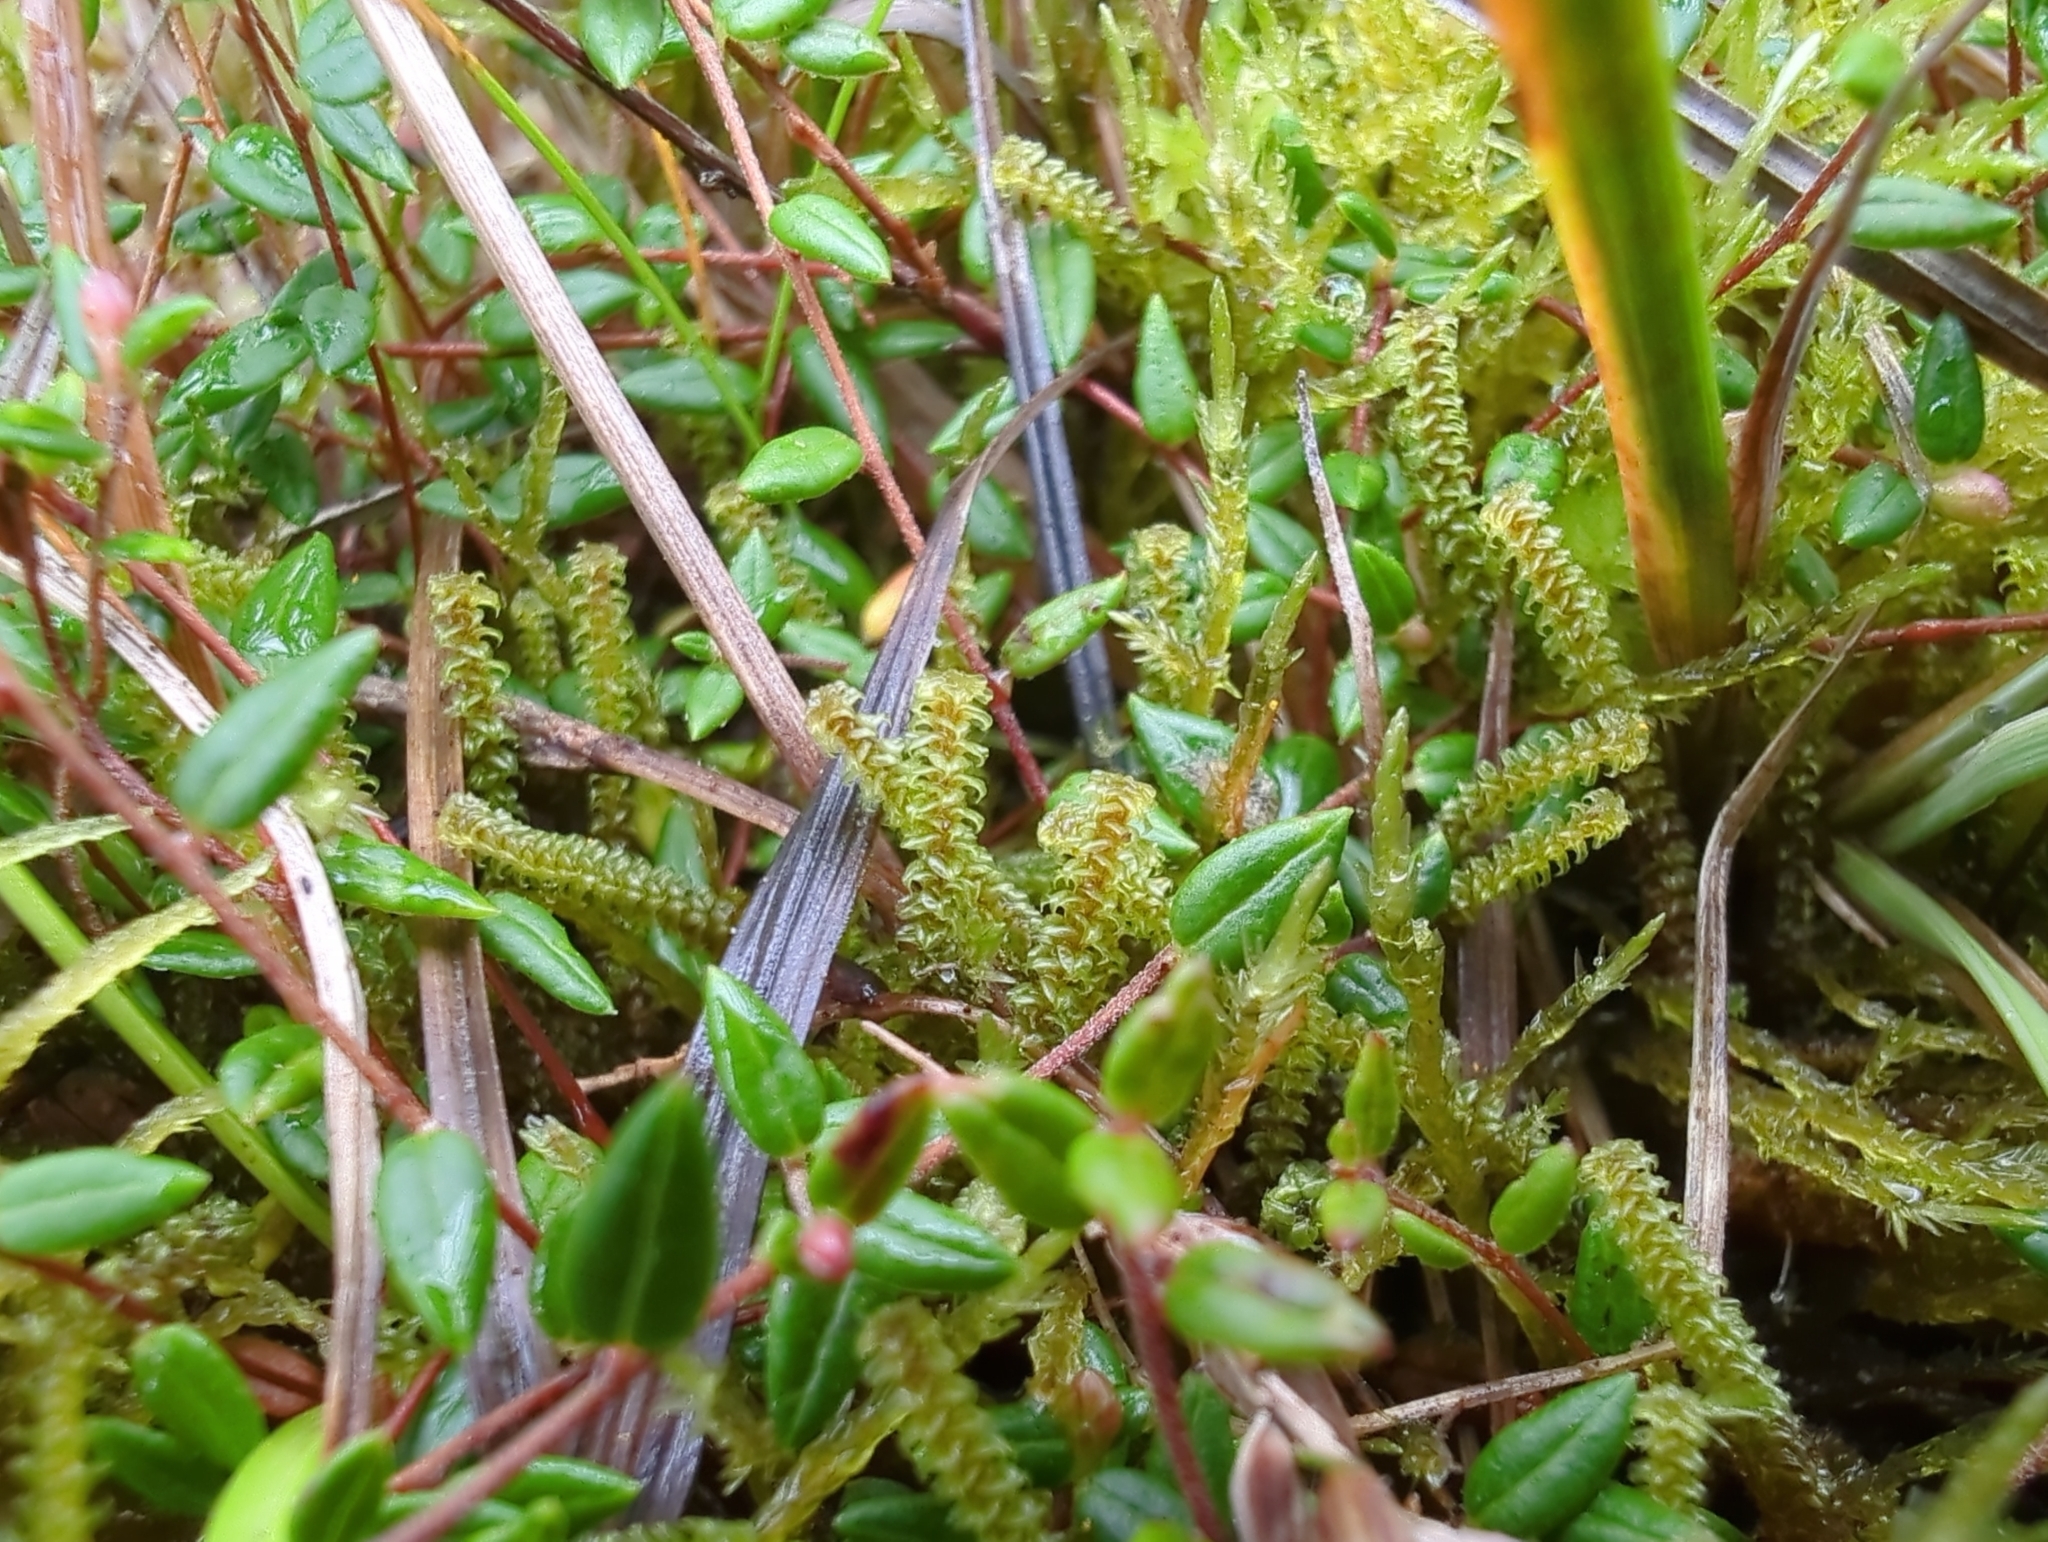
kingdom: Plantae
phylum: Bryophyta
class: Bryopsida
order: Splachnales
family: Meesiaceae
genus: Paludella
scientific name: Paludella squarrosa
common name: Tufted fen moss
